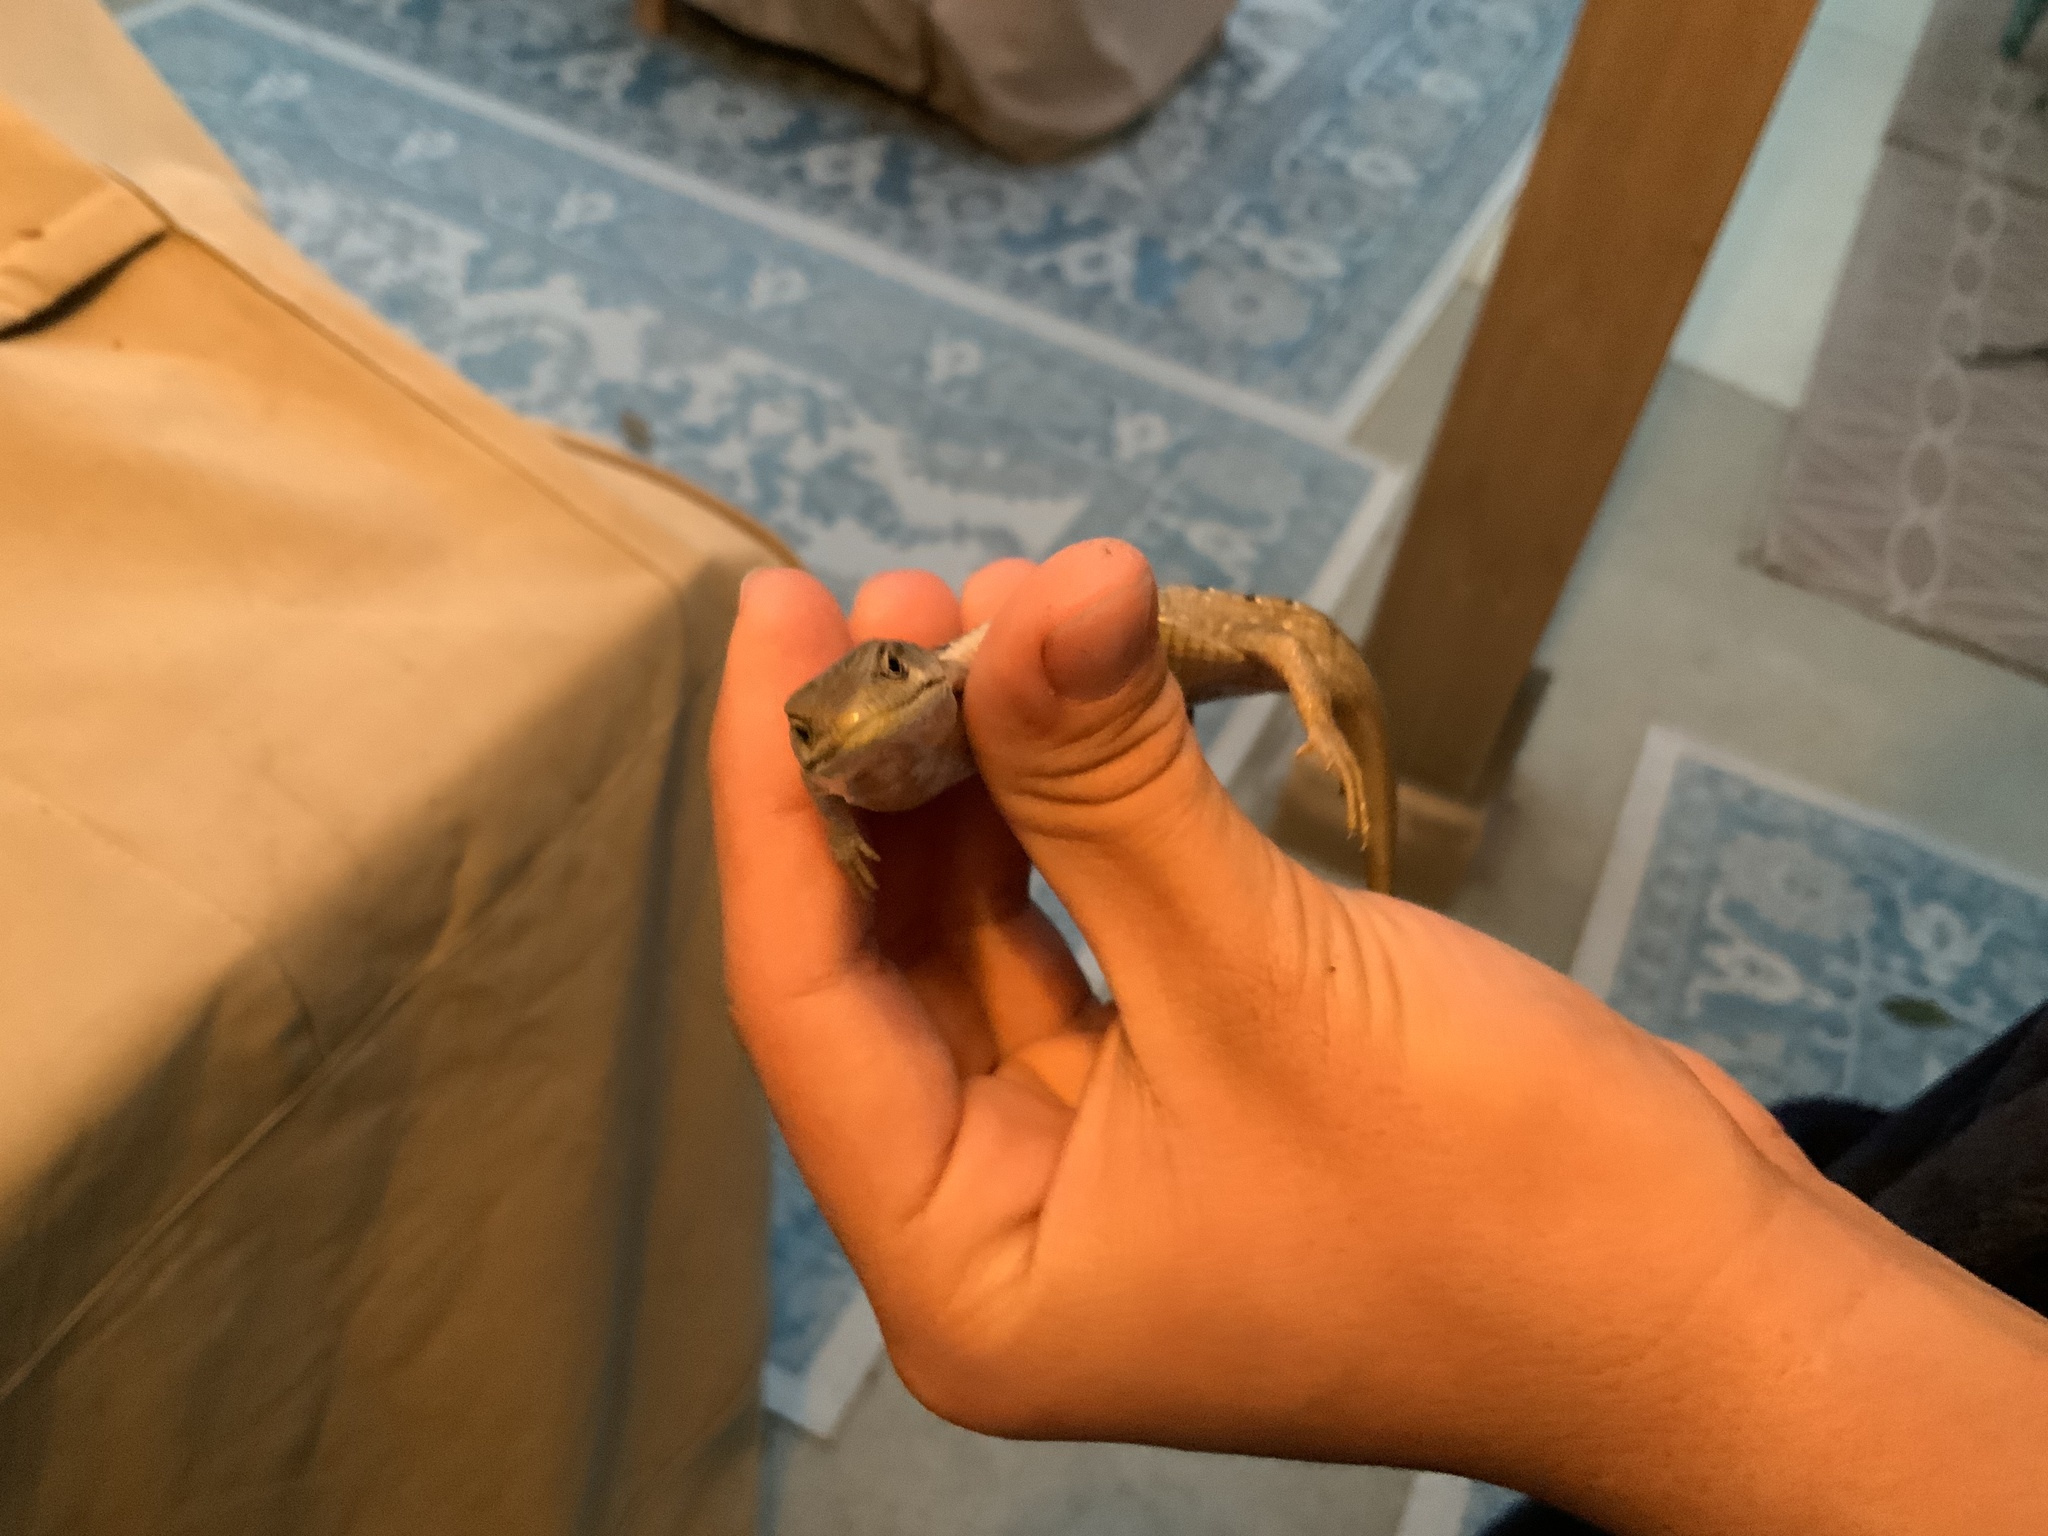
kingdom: Animalia
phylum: Chordata
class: Squamata
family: Anguidae
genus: Elgaria
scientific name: Elgaria multicarinata
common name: Southern alligator lizard
